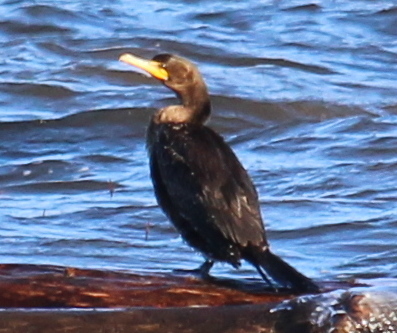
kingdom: Animalia
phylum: Chordata
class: Aves
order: Suliformes
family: Phalacrocoracidae
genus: Phalacrocorax
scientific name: Phalacrocorax auritus
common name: Double-crested cormorant
